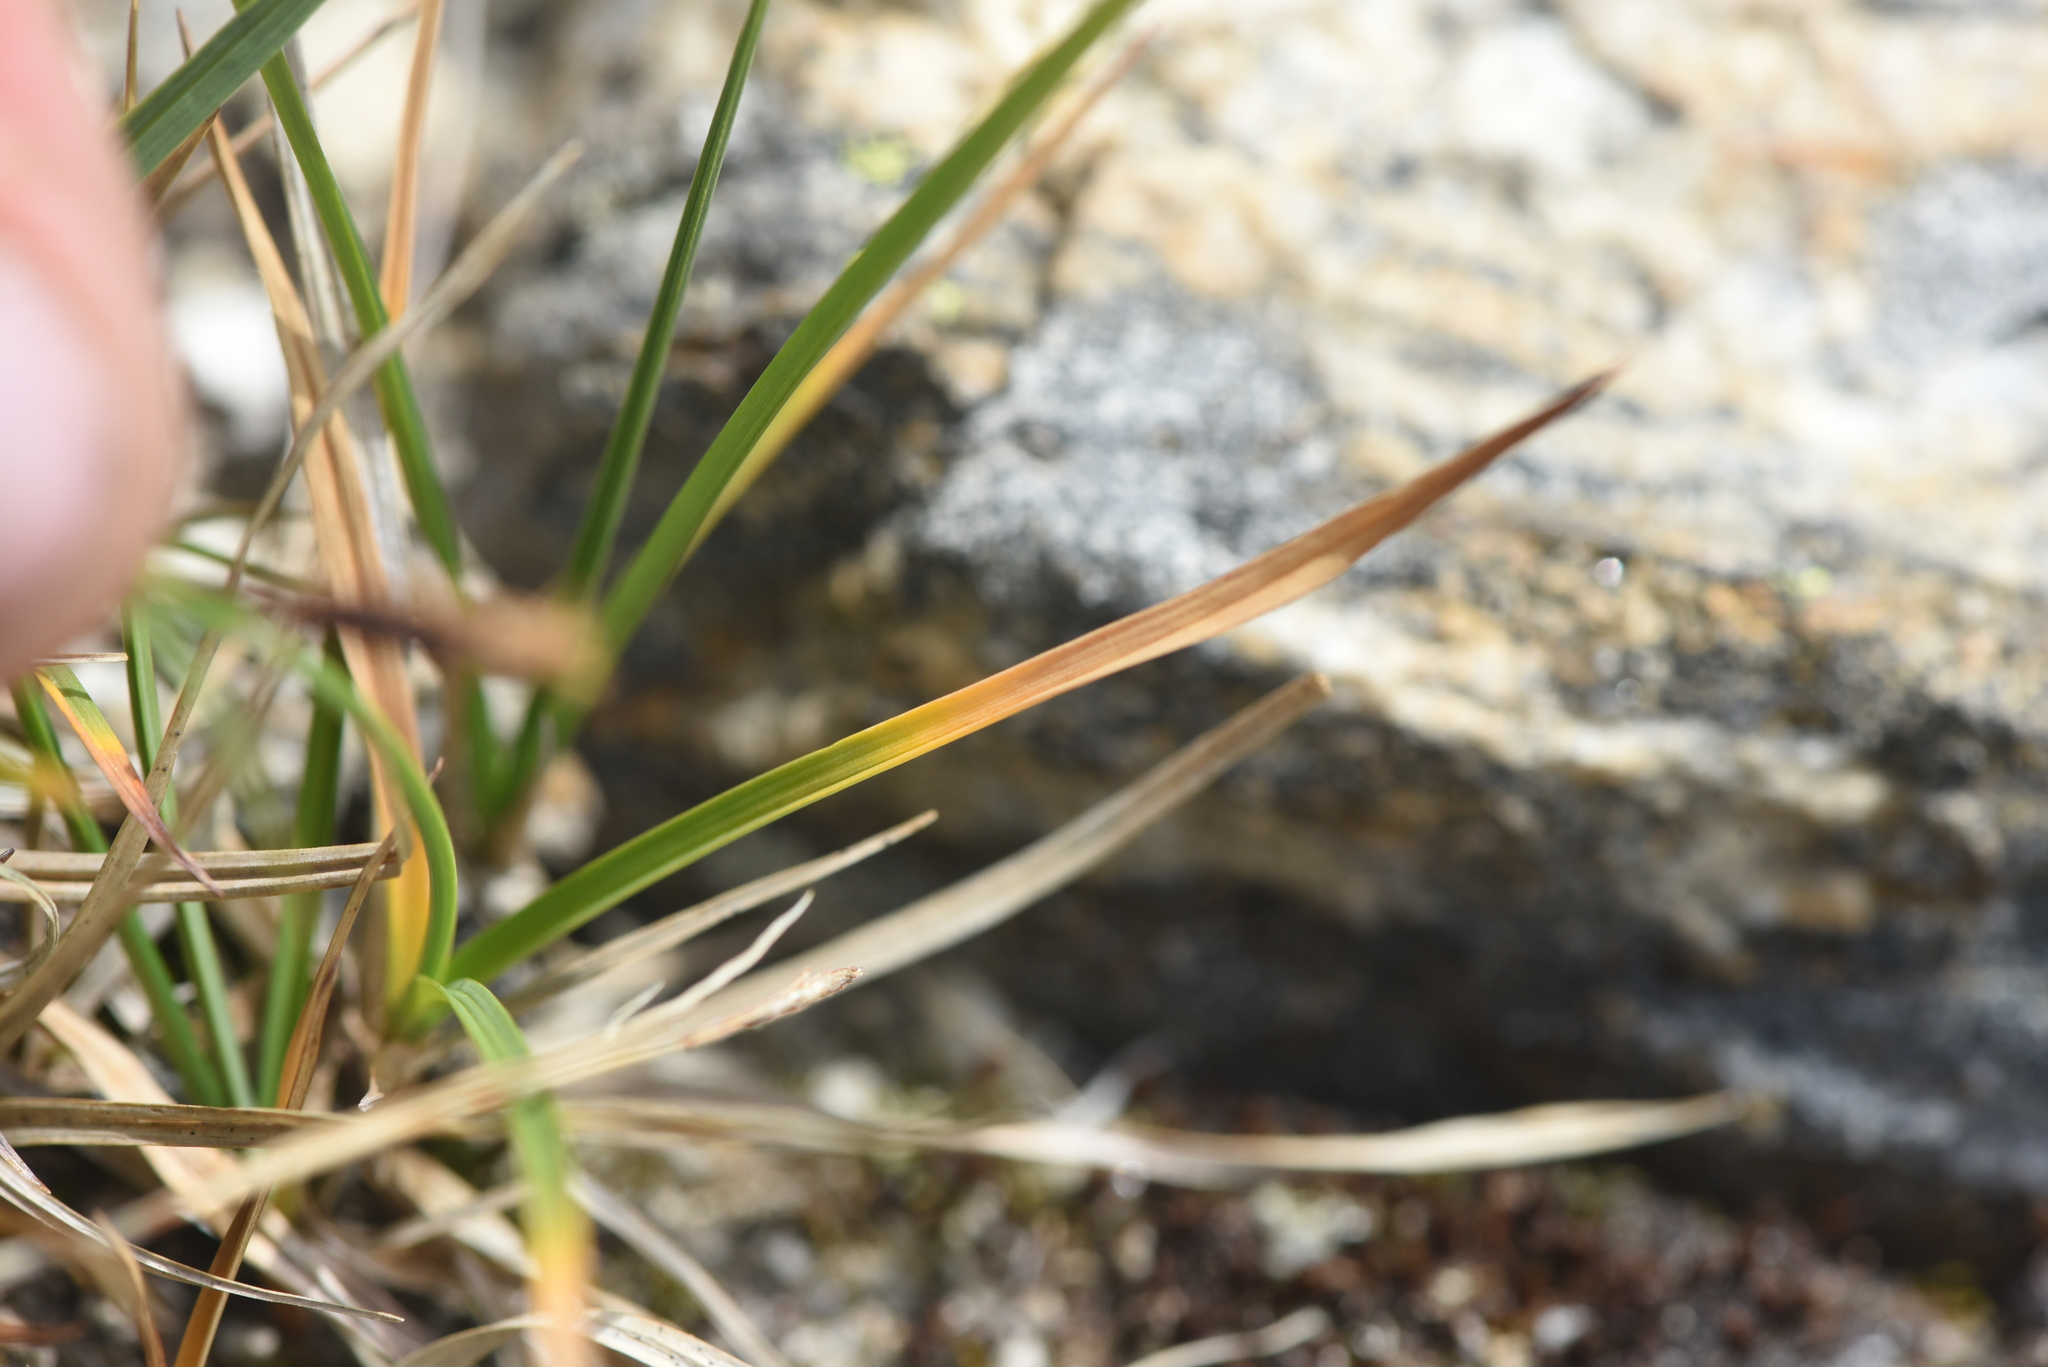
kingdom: Plantae
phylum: Tracheophyta
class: Liliopsida
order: Poales
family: Juncaceae
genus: Luzula
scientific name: Luzula spicata
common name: Spiked wood-rush
